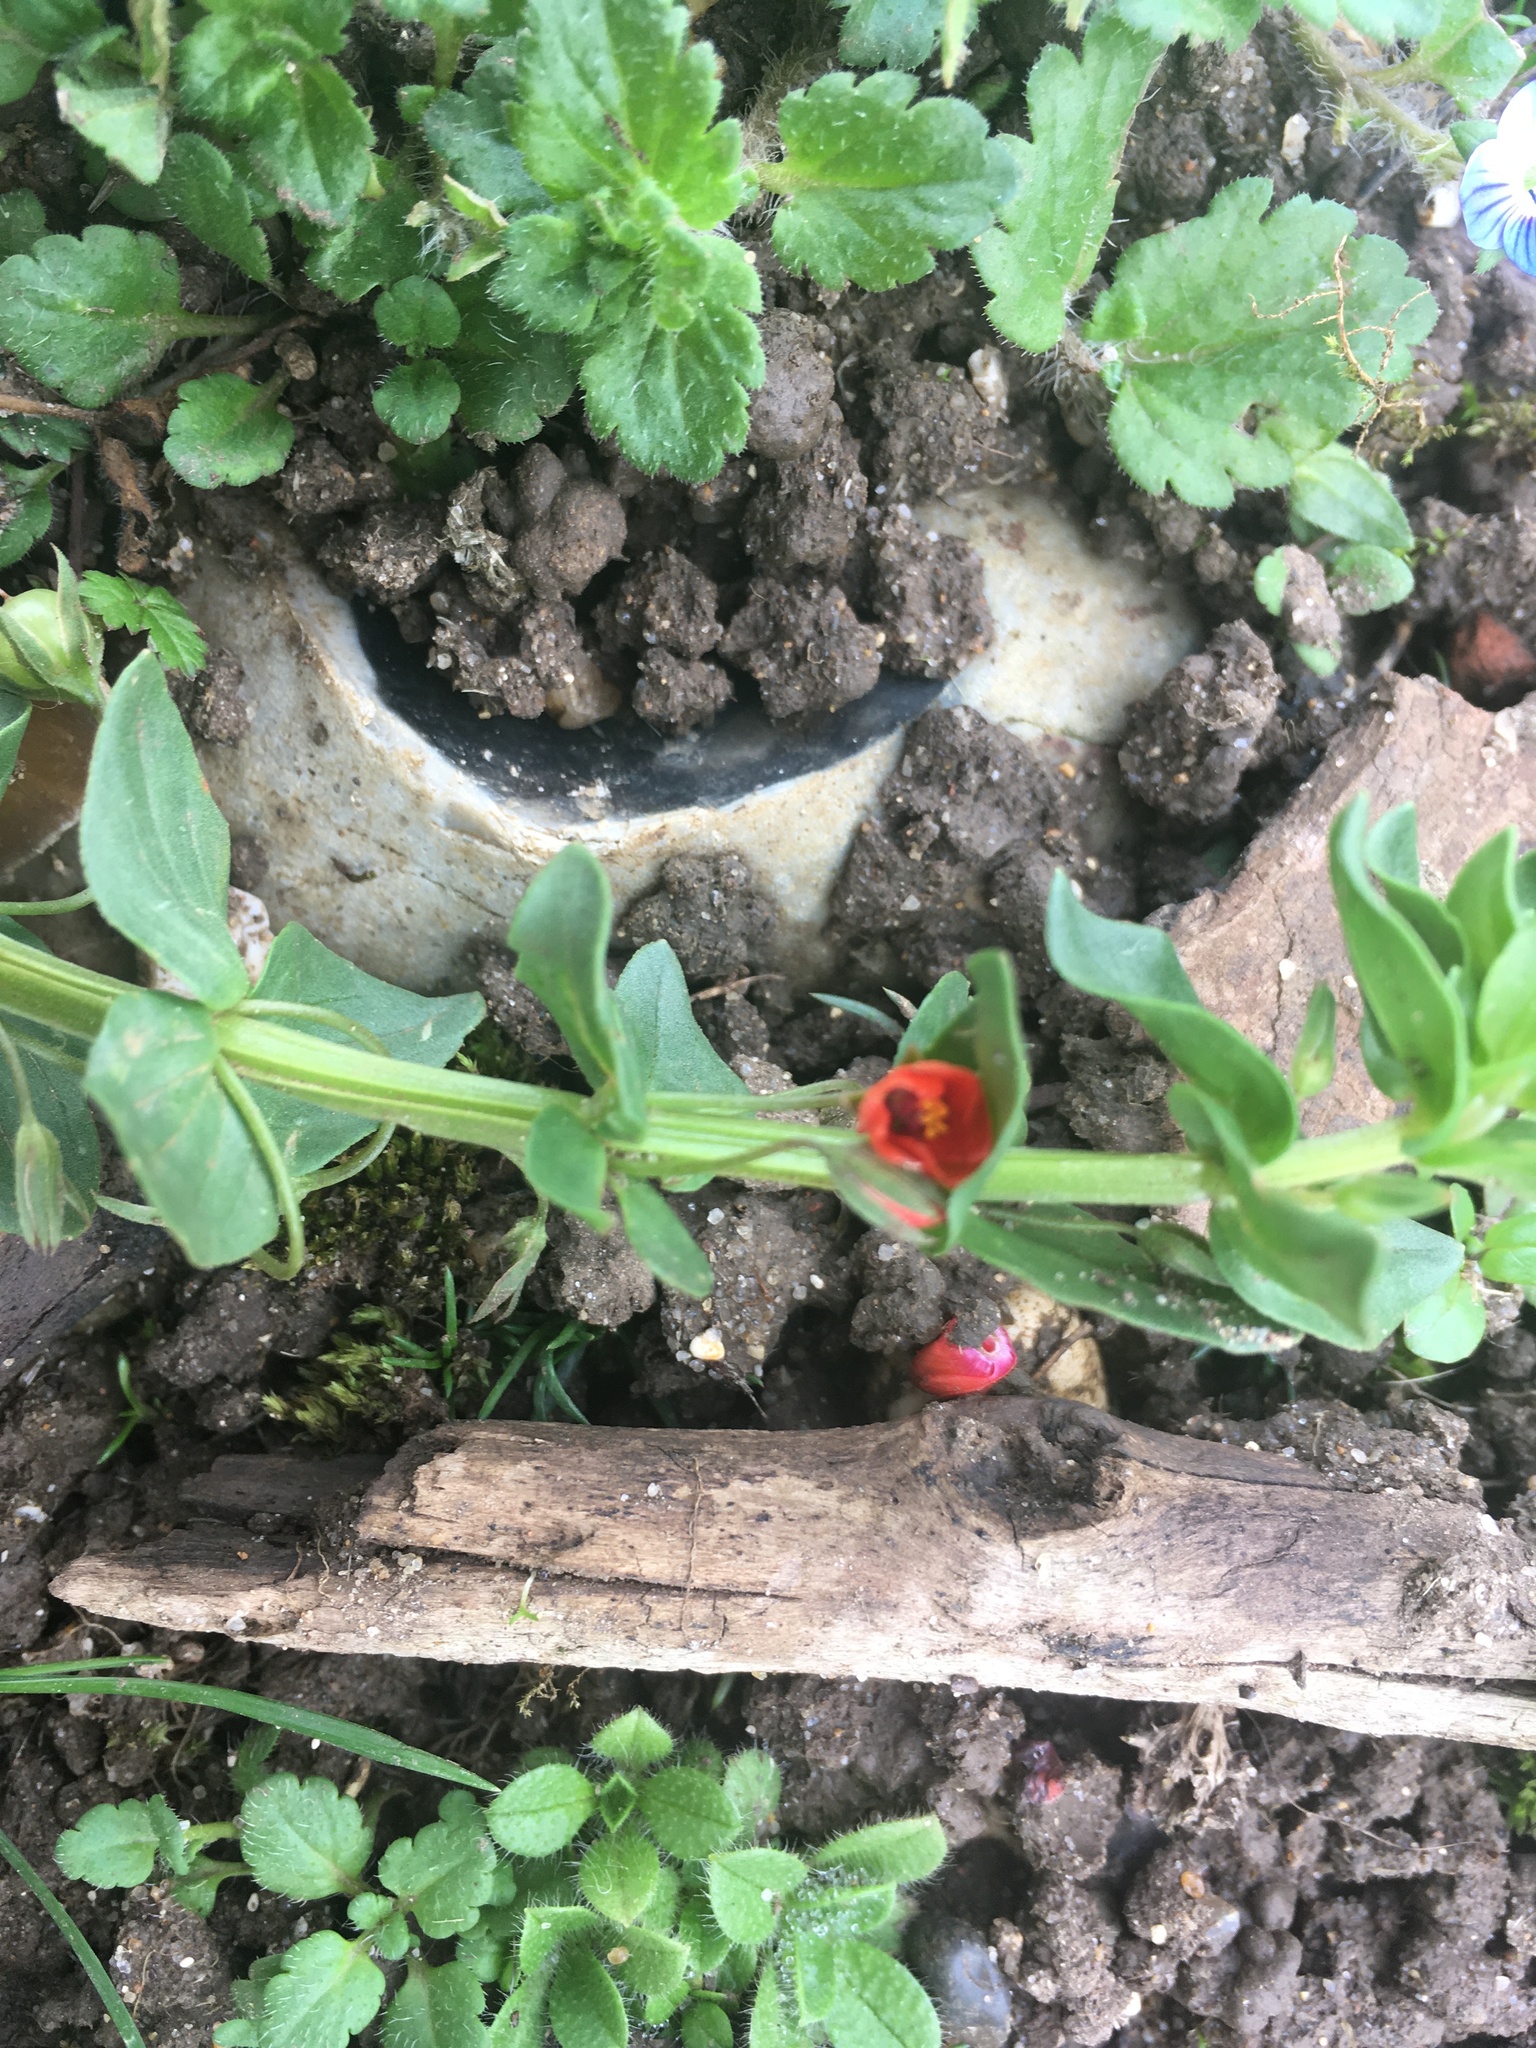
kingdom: Plantae
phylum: Tracheophyta
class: Magnoliopsida
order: Ericales
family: Primulaceae
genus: Lysimachia
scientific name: Lysimachia arvensis
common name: Scarlet pimpernel
